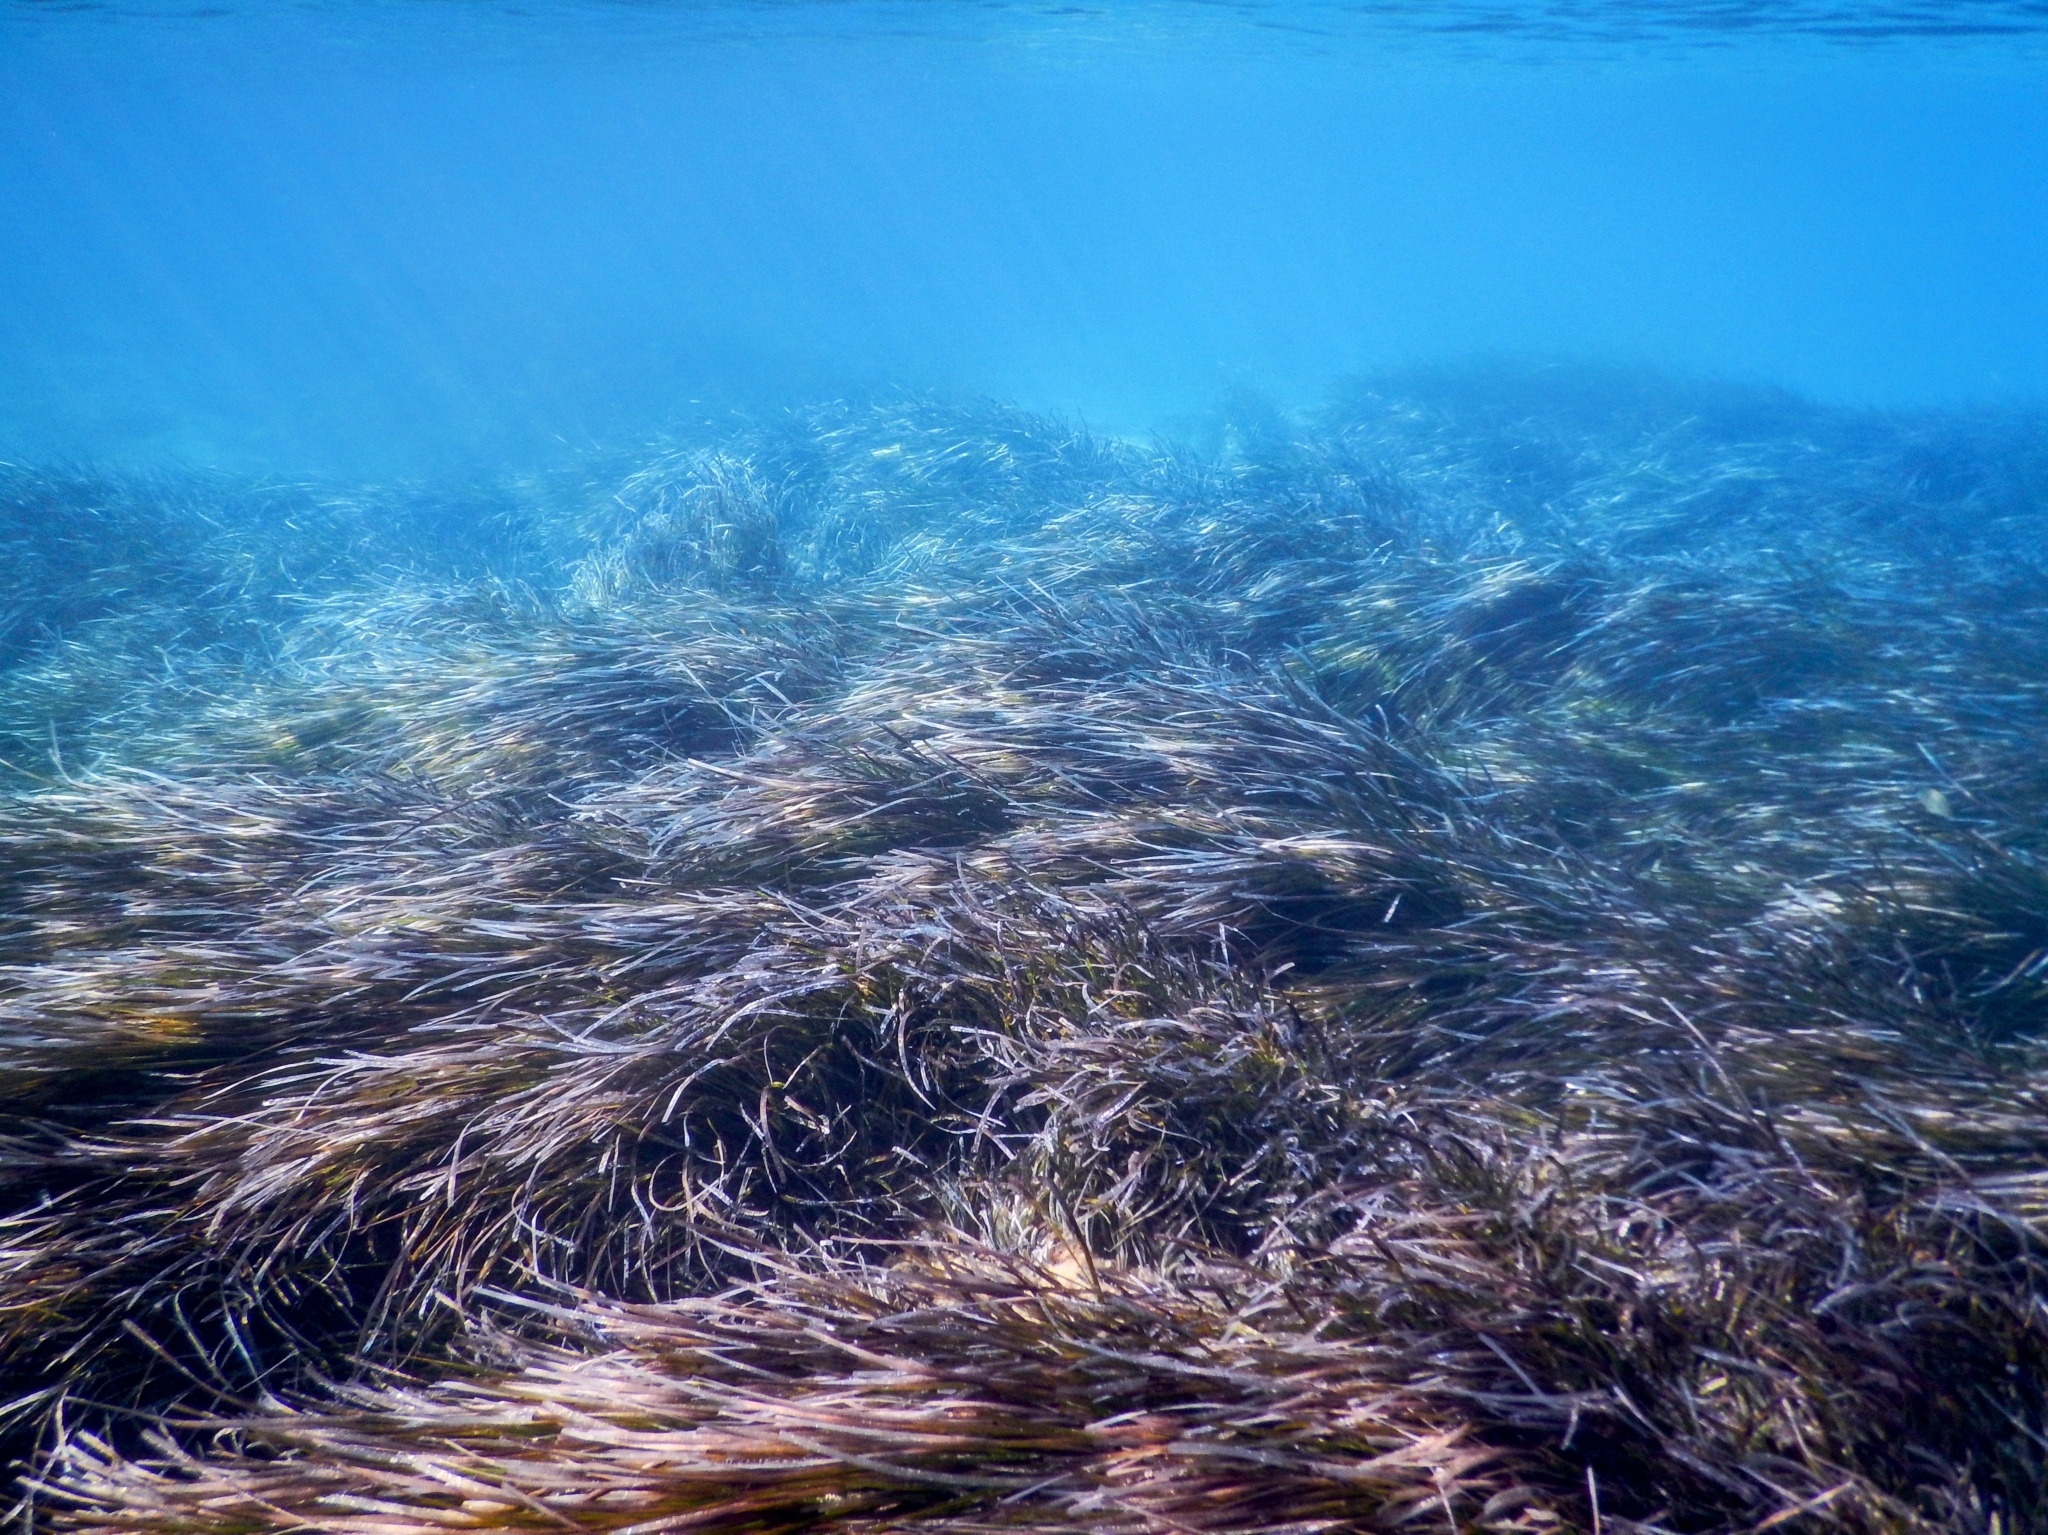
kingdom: Plantae
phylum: Tracheophyta
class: Liliopsida
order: Alismatales
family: Posidoniaceae
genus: Posidonia
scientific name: Posidonia oceanica
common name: Mediterranean tapeweed
